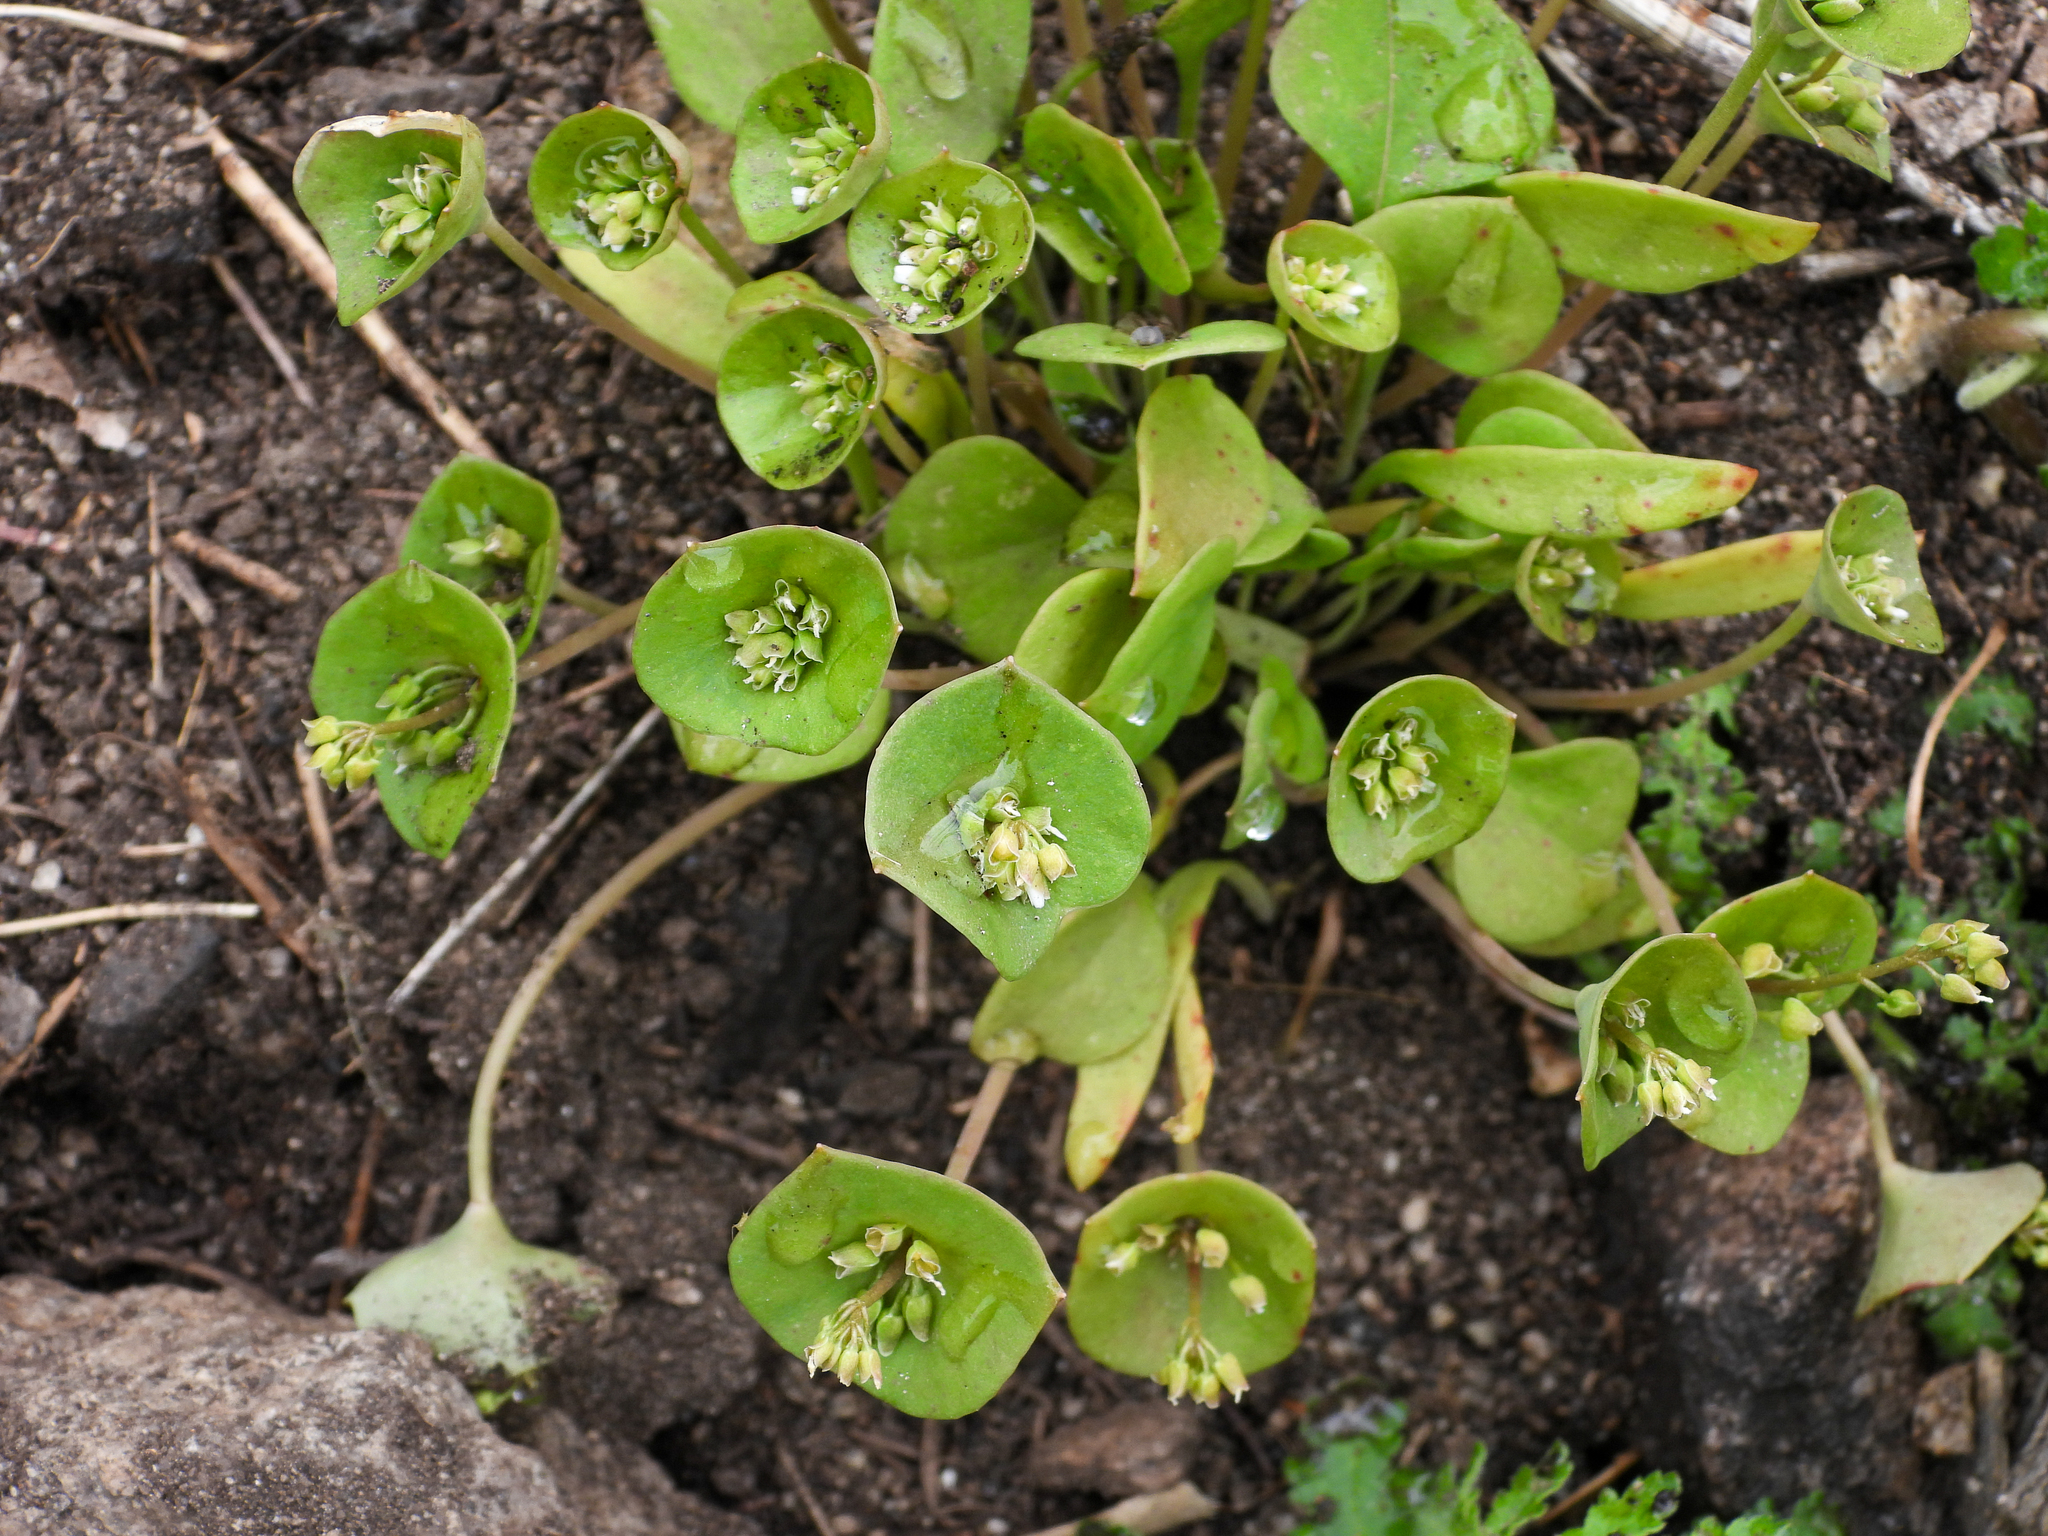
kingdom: Plantae
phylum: Tracheophyta
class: Magnoliopsida
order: Caryophyllales
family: Montiaceae
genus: Claytonia
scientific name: Claytonia perfoliata
